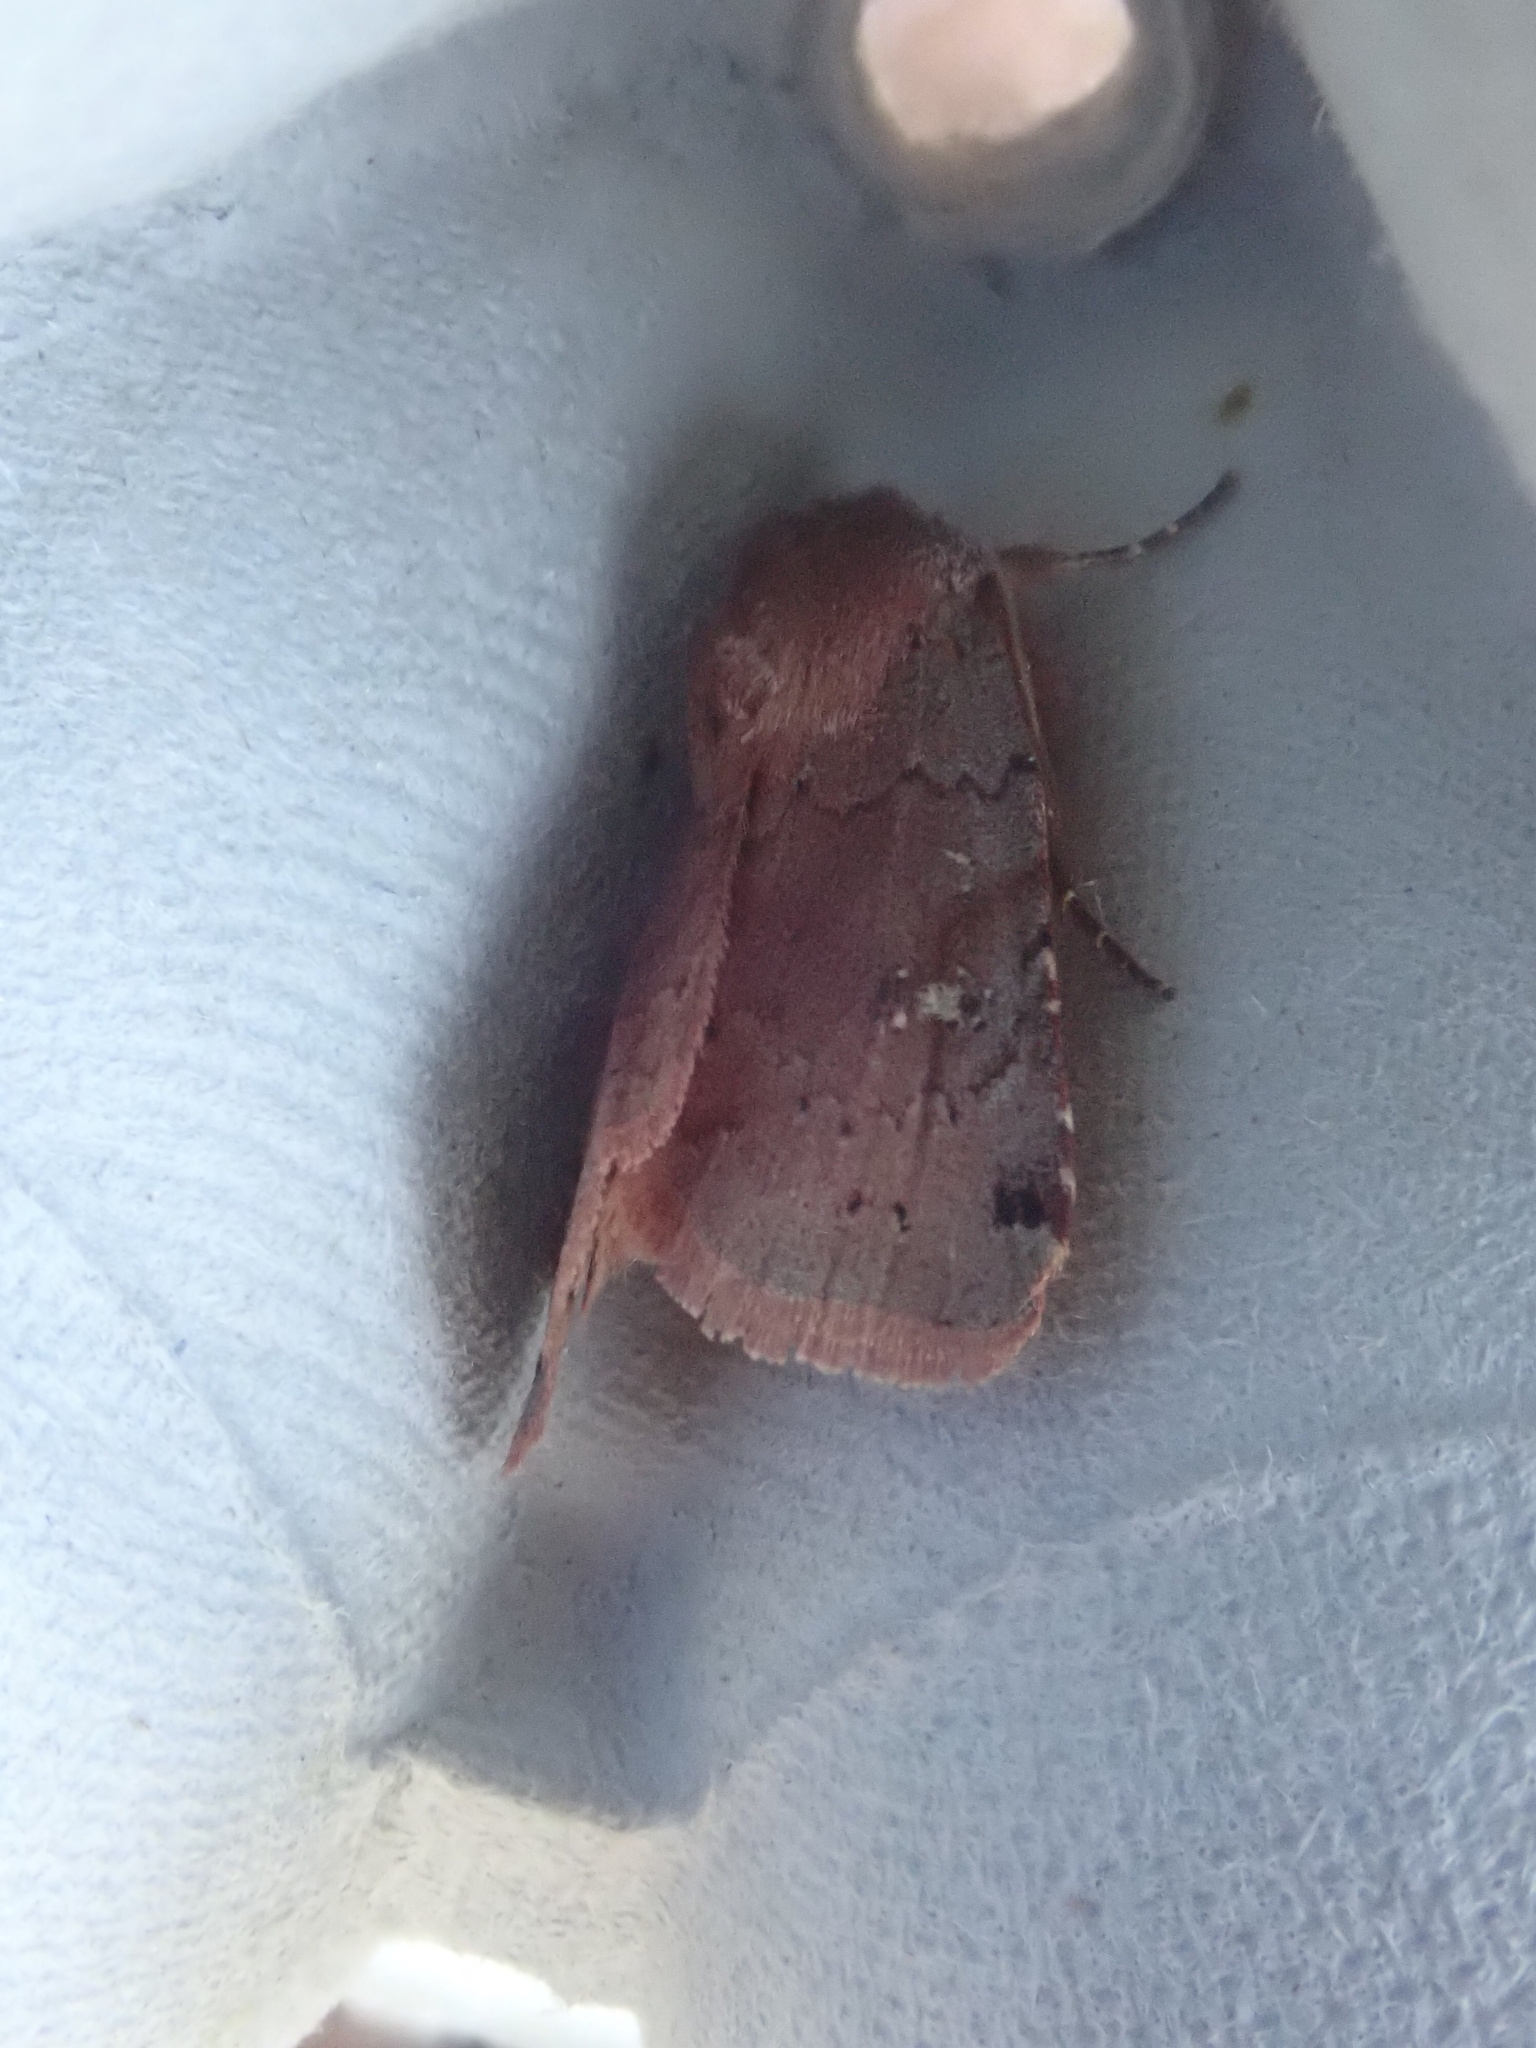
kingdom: Animalia
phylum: Arthropoda
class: Insecta
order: Lepidoptera
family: Noctuidae
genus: Cerastis
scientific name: Cerastis fishii
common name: Fish's dart
